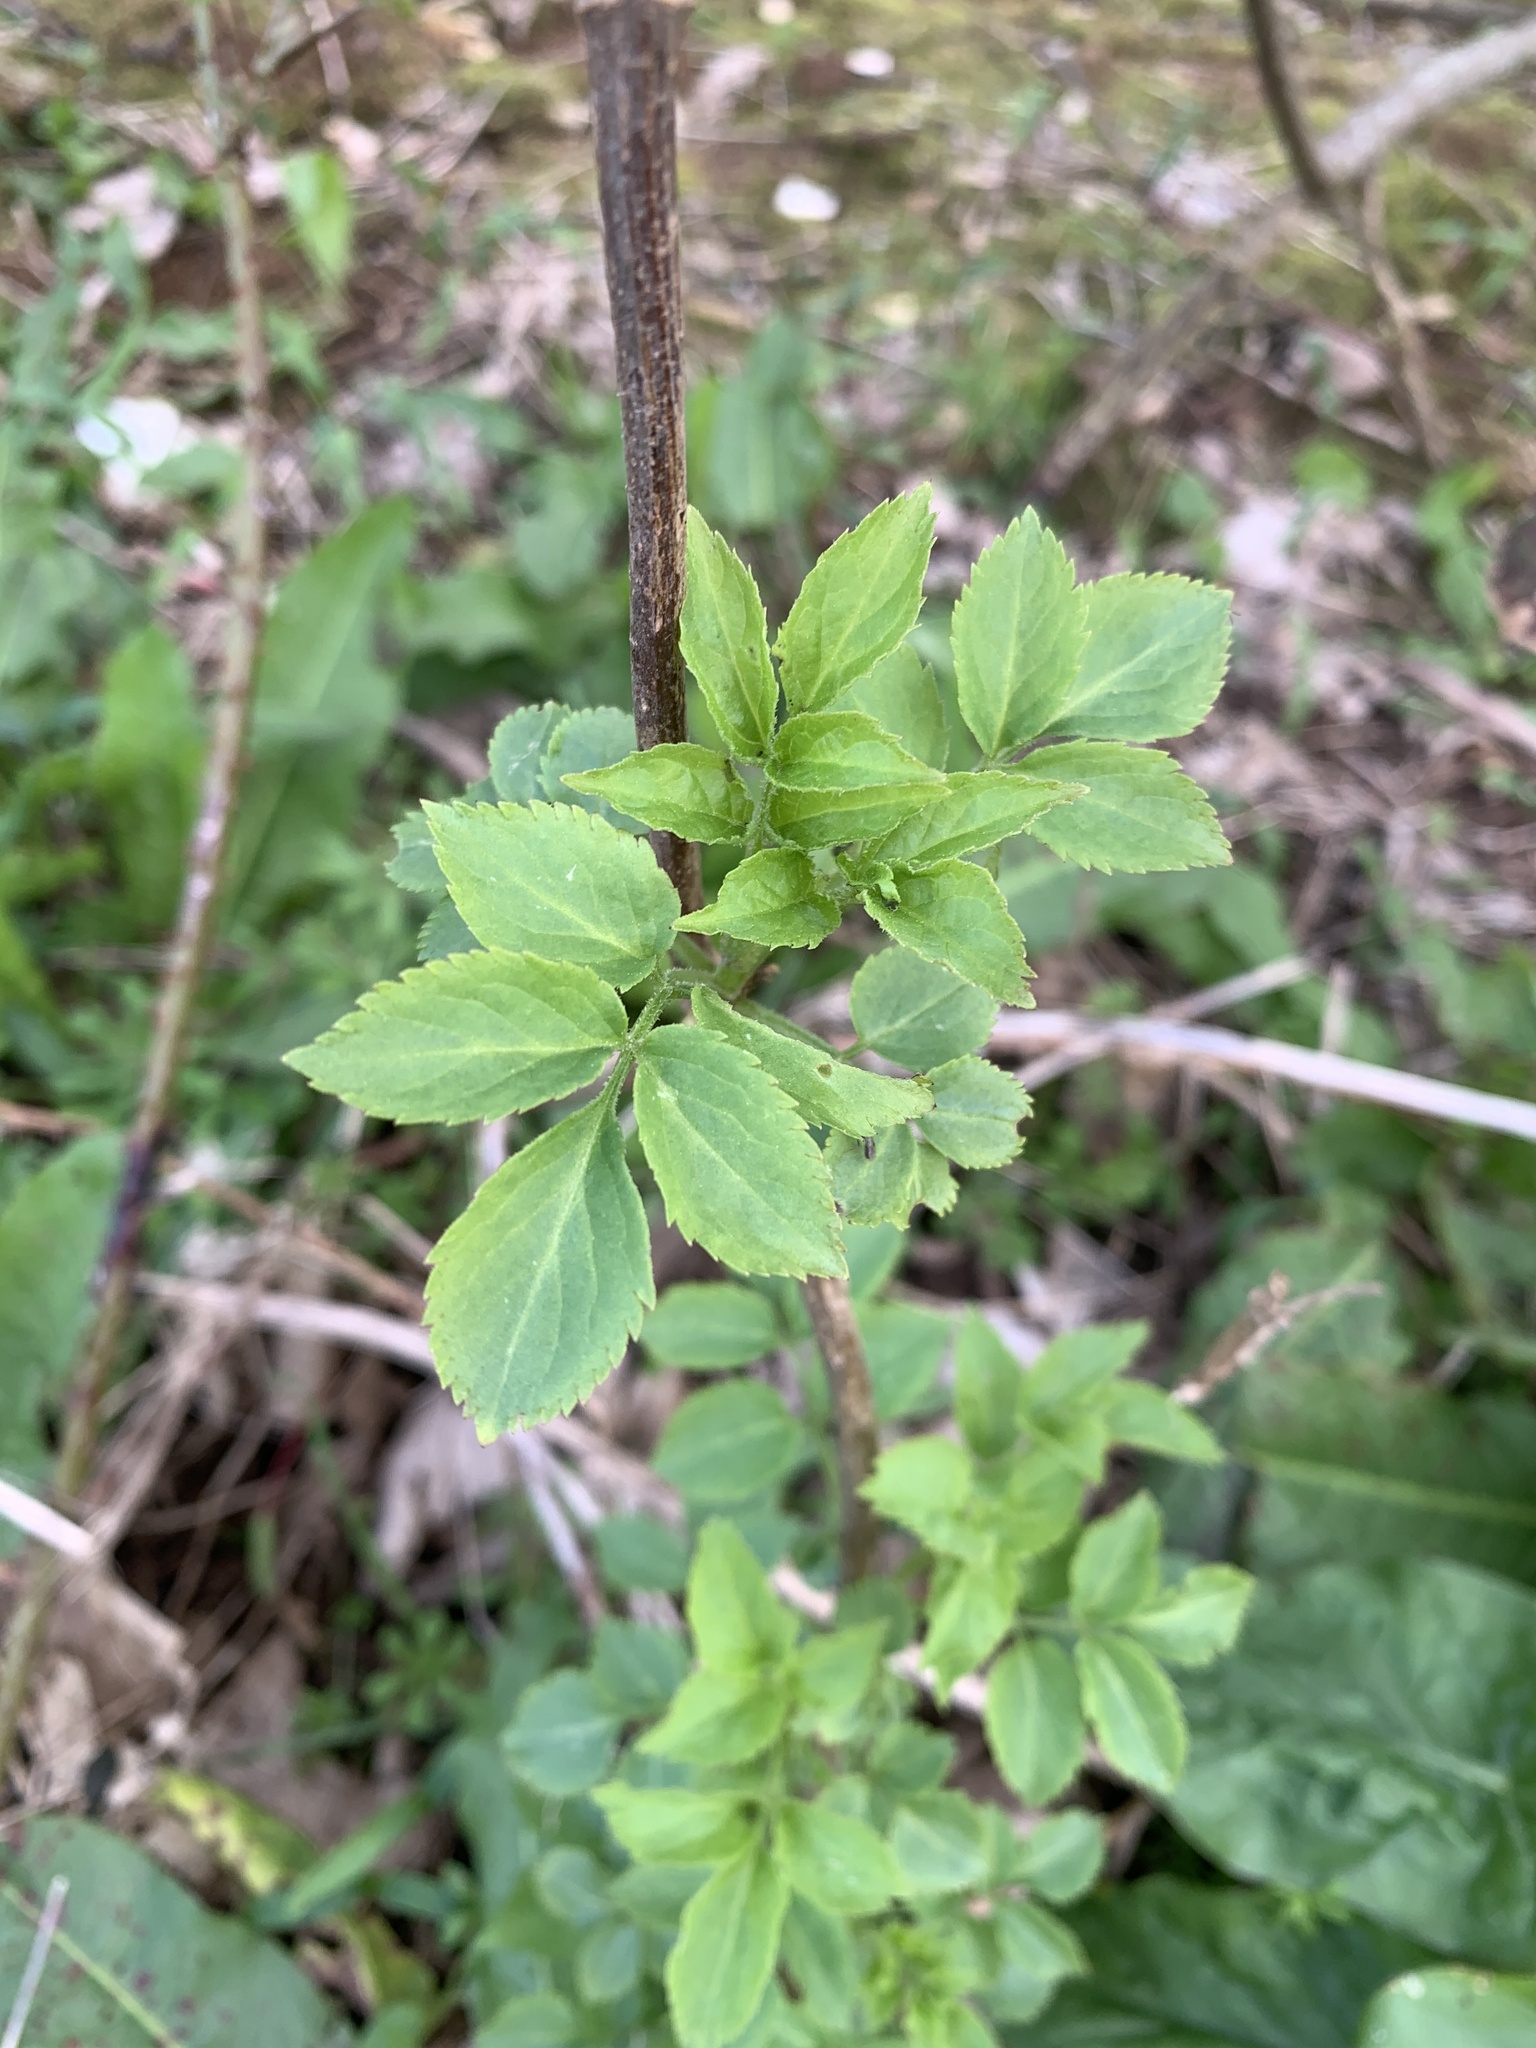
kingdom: Plantae
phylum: Tracheophyta
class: Magnoliopsida
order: Dipsacales
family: Viburnaceae
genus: Sambucus
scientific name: Sambucus nigra
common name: Elder
